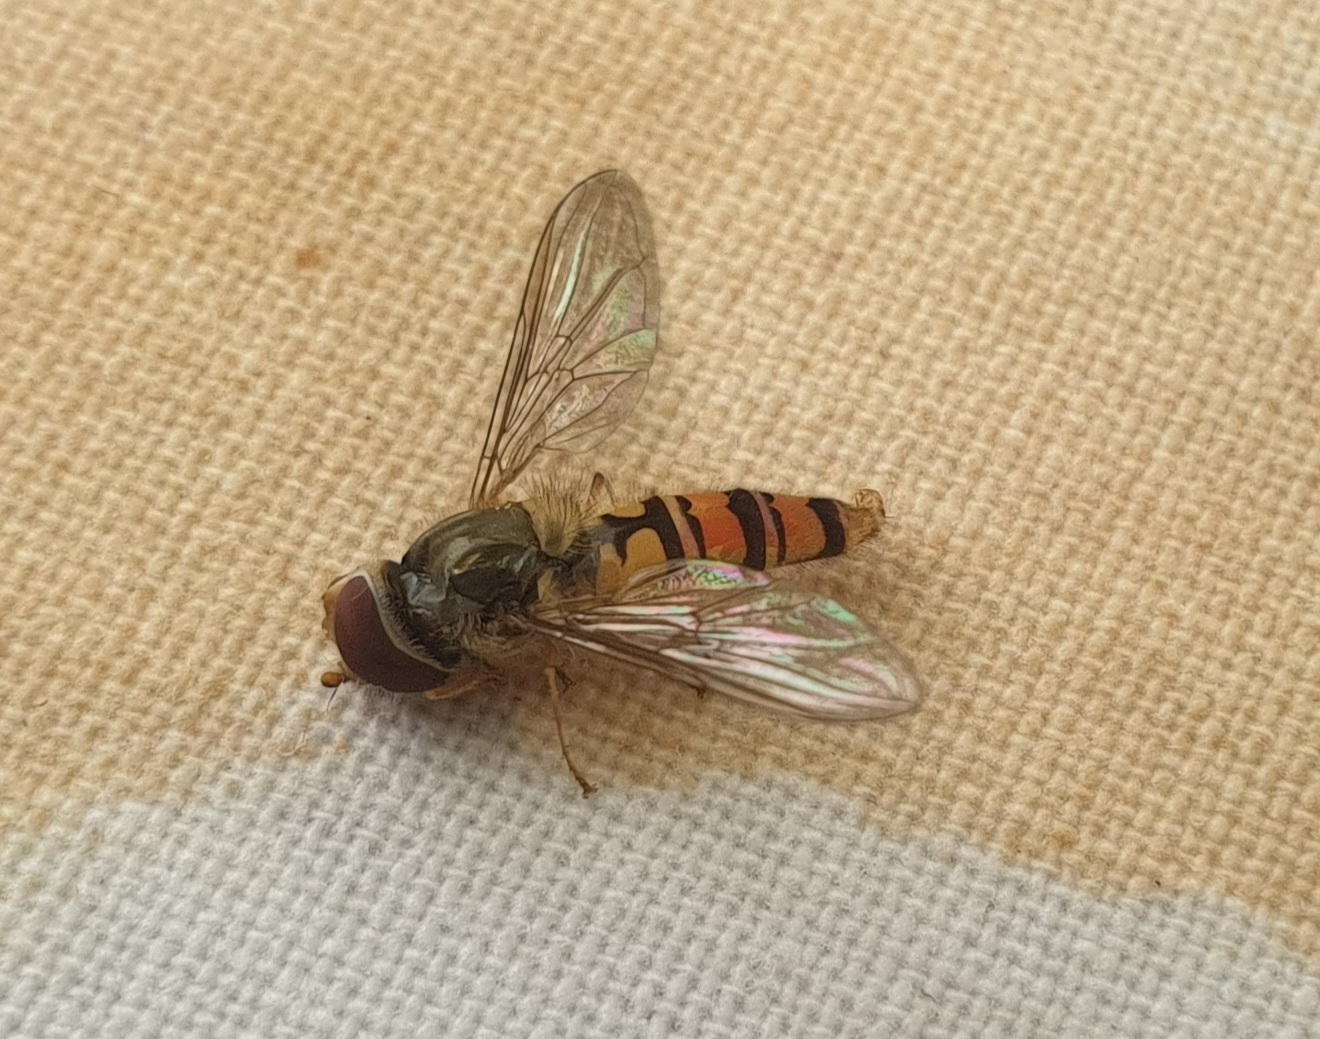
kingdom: Animalia
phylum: Arthropoda
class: Insecta
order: Diptera
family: Syrphidae
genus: Episyrphus
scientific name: Episyrphus balteatus
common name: Marmalade hoverfly
